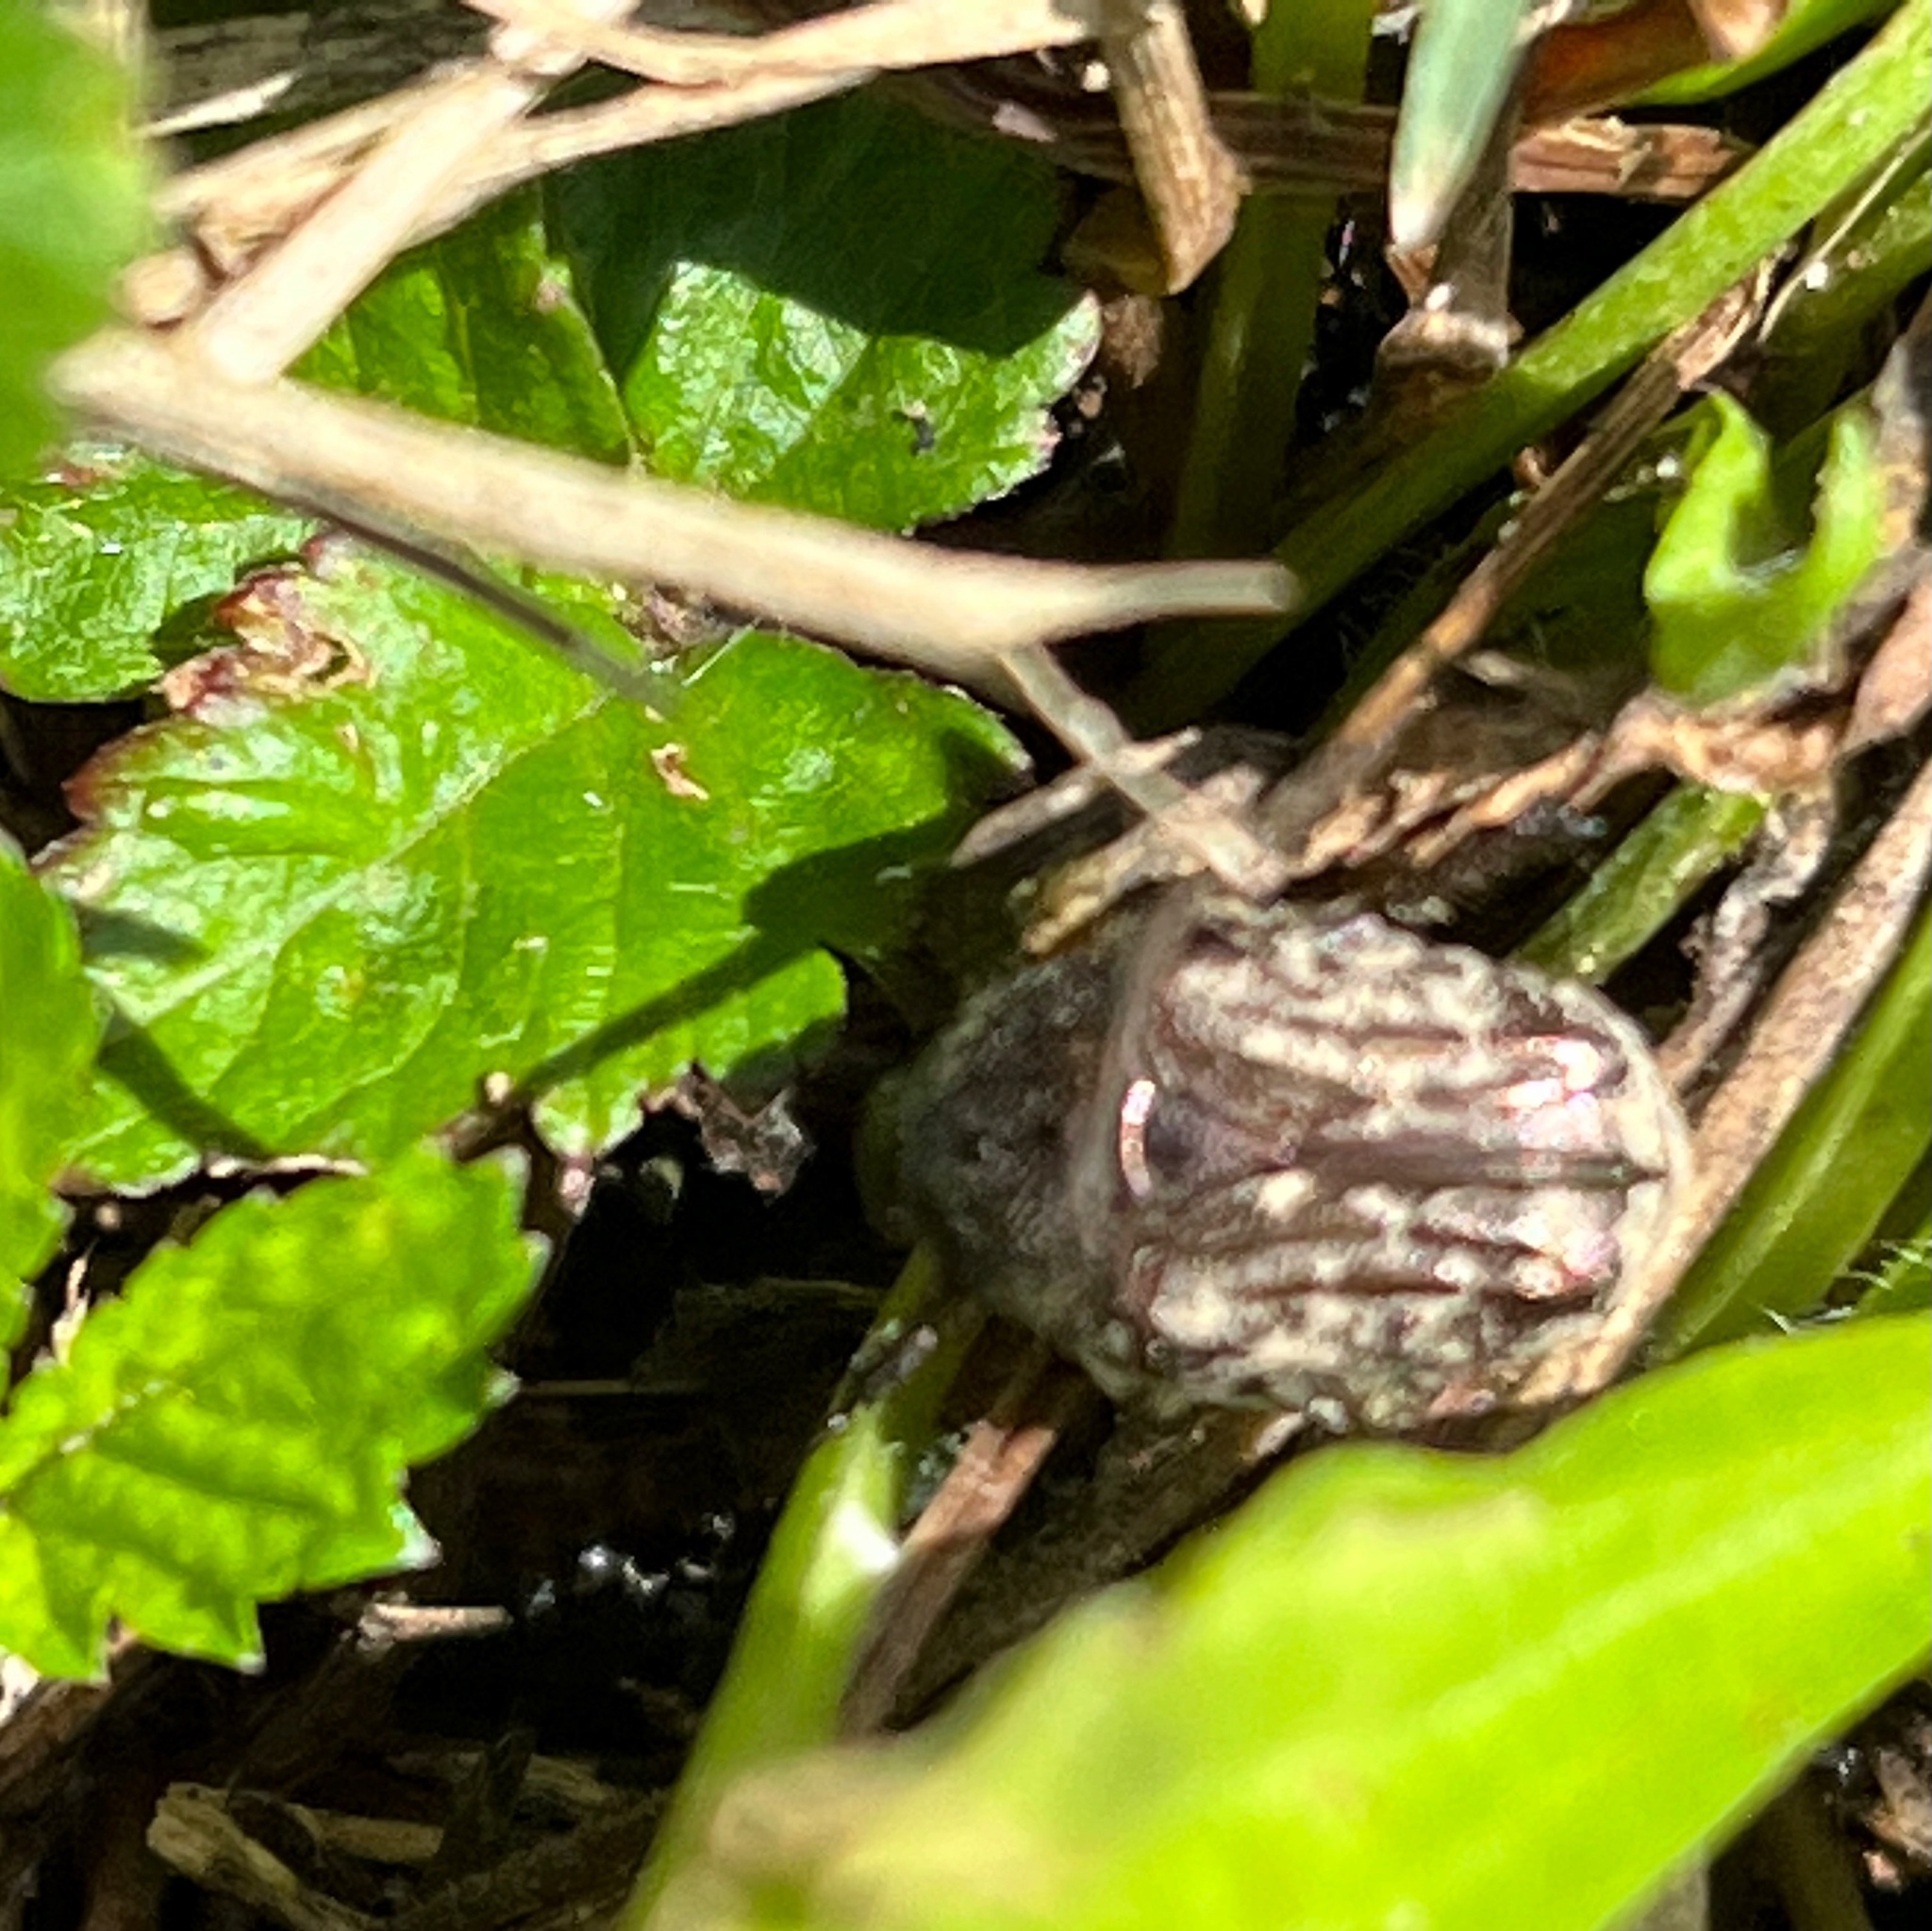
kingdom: Animalia
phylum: Arthropoda
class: Insecta
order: Coleoptera
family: Scarabaeidae
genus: Euphoria
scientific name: Euphoria sepulcralis
